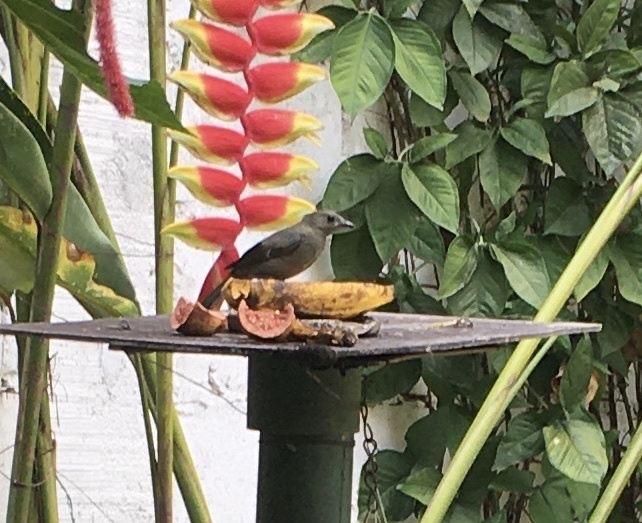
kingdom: Animalia
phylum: Chordata
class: Aves
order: Passeriformes
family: Thraupidae
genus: Thraupis
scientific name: Thraupis palmarum
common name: Palm tanager
